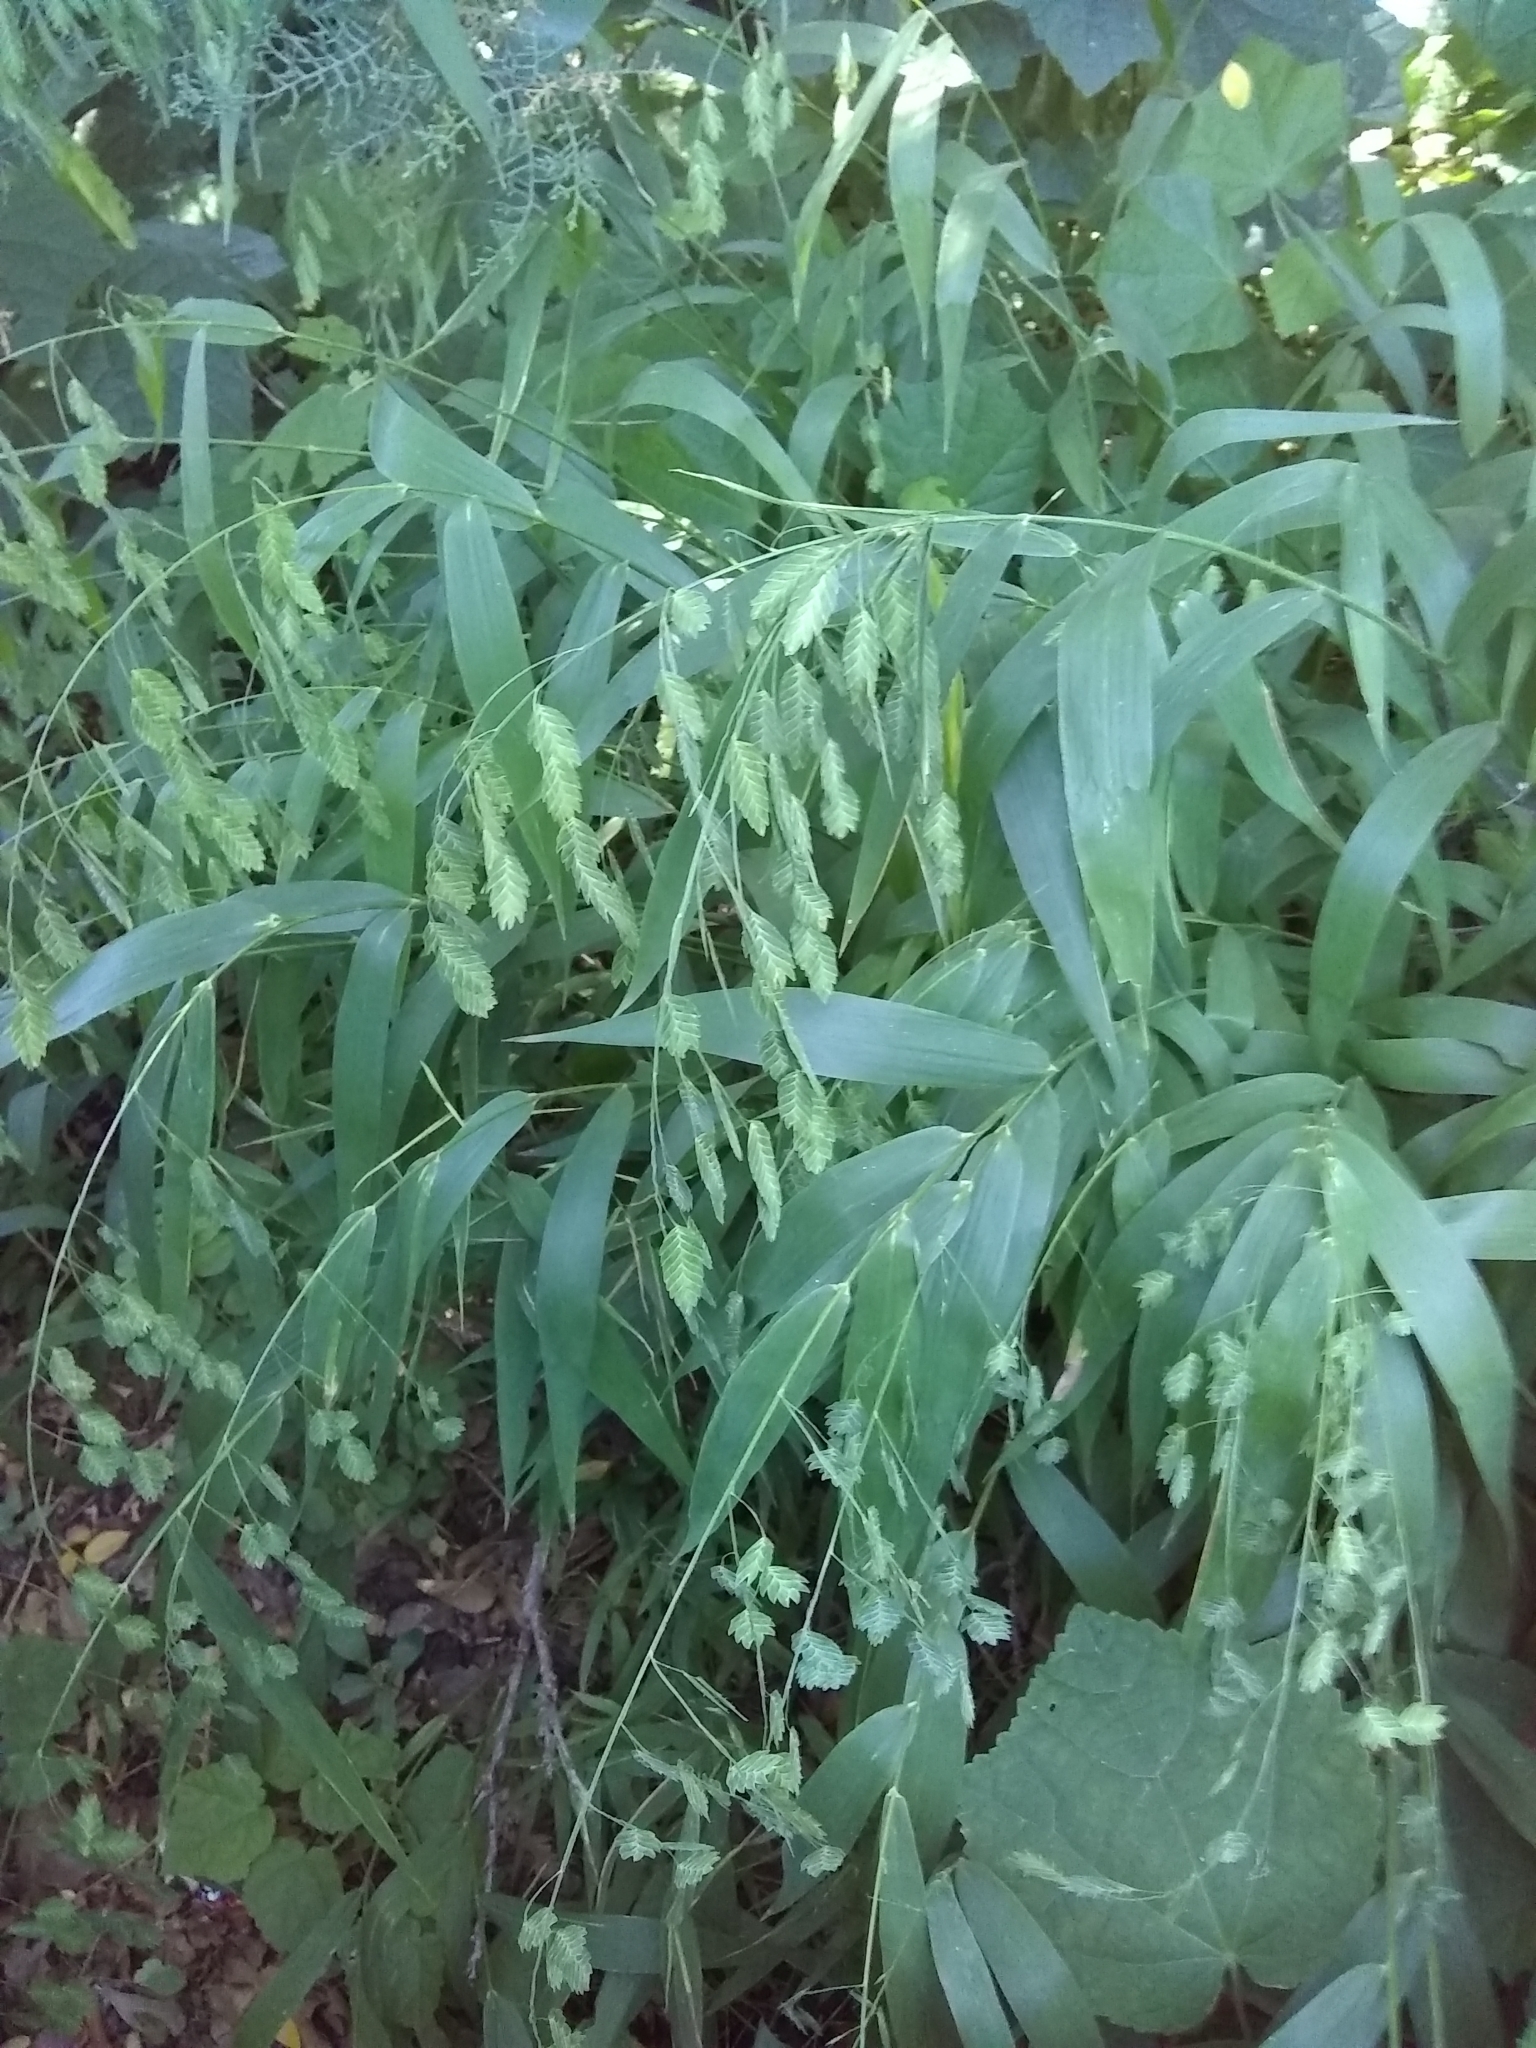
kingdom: Plantae
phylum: Tracheophyta
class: Liliopsida
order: Poales
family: Poaceae
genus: Chasmanthium
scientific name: Chasmanthium latifolium
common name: Broad-leaved chasmanthium
